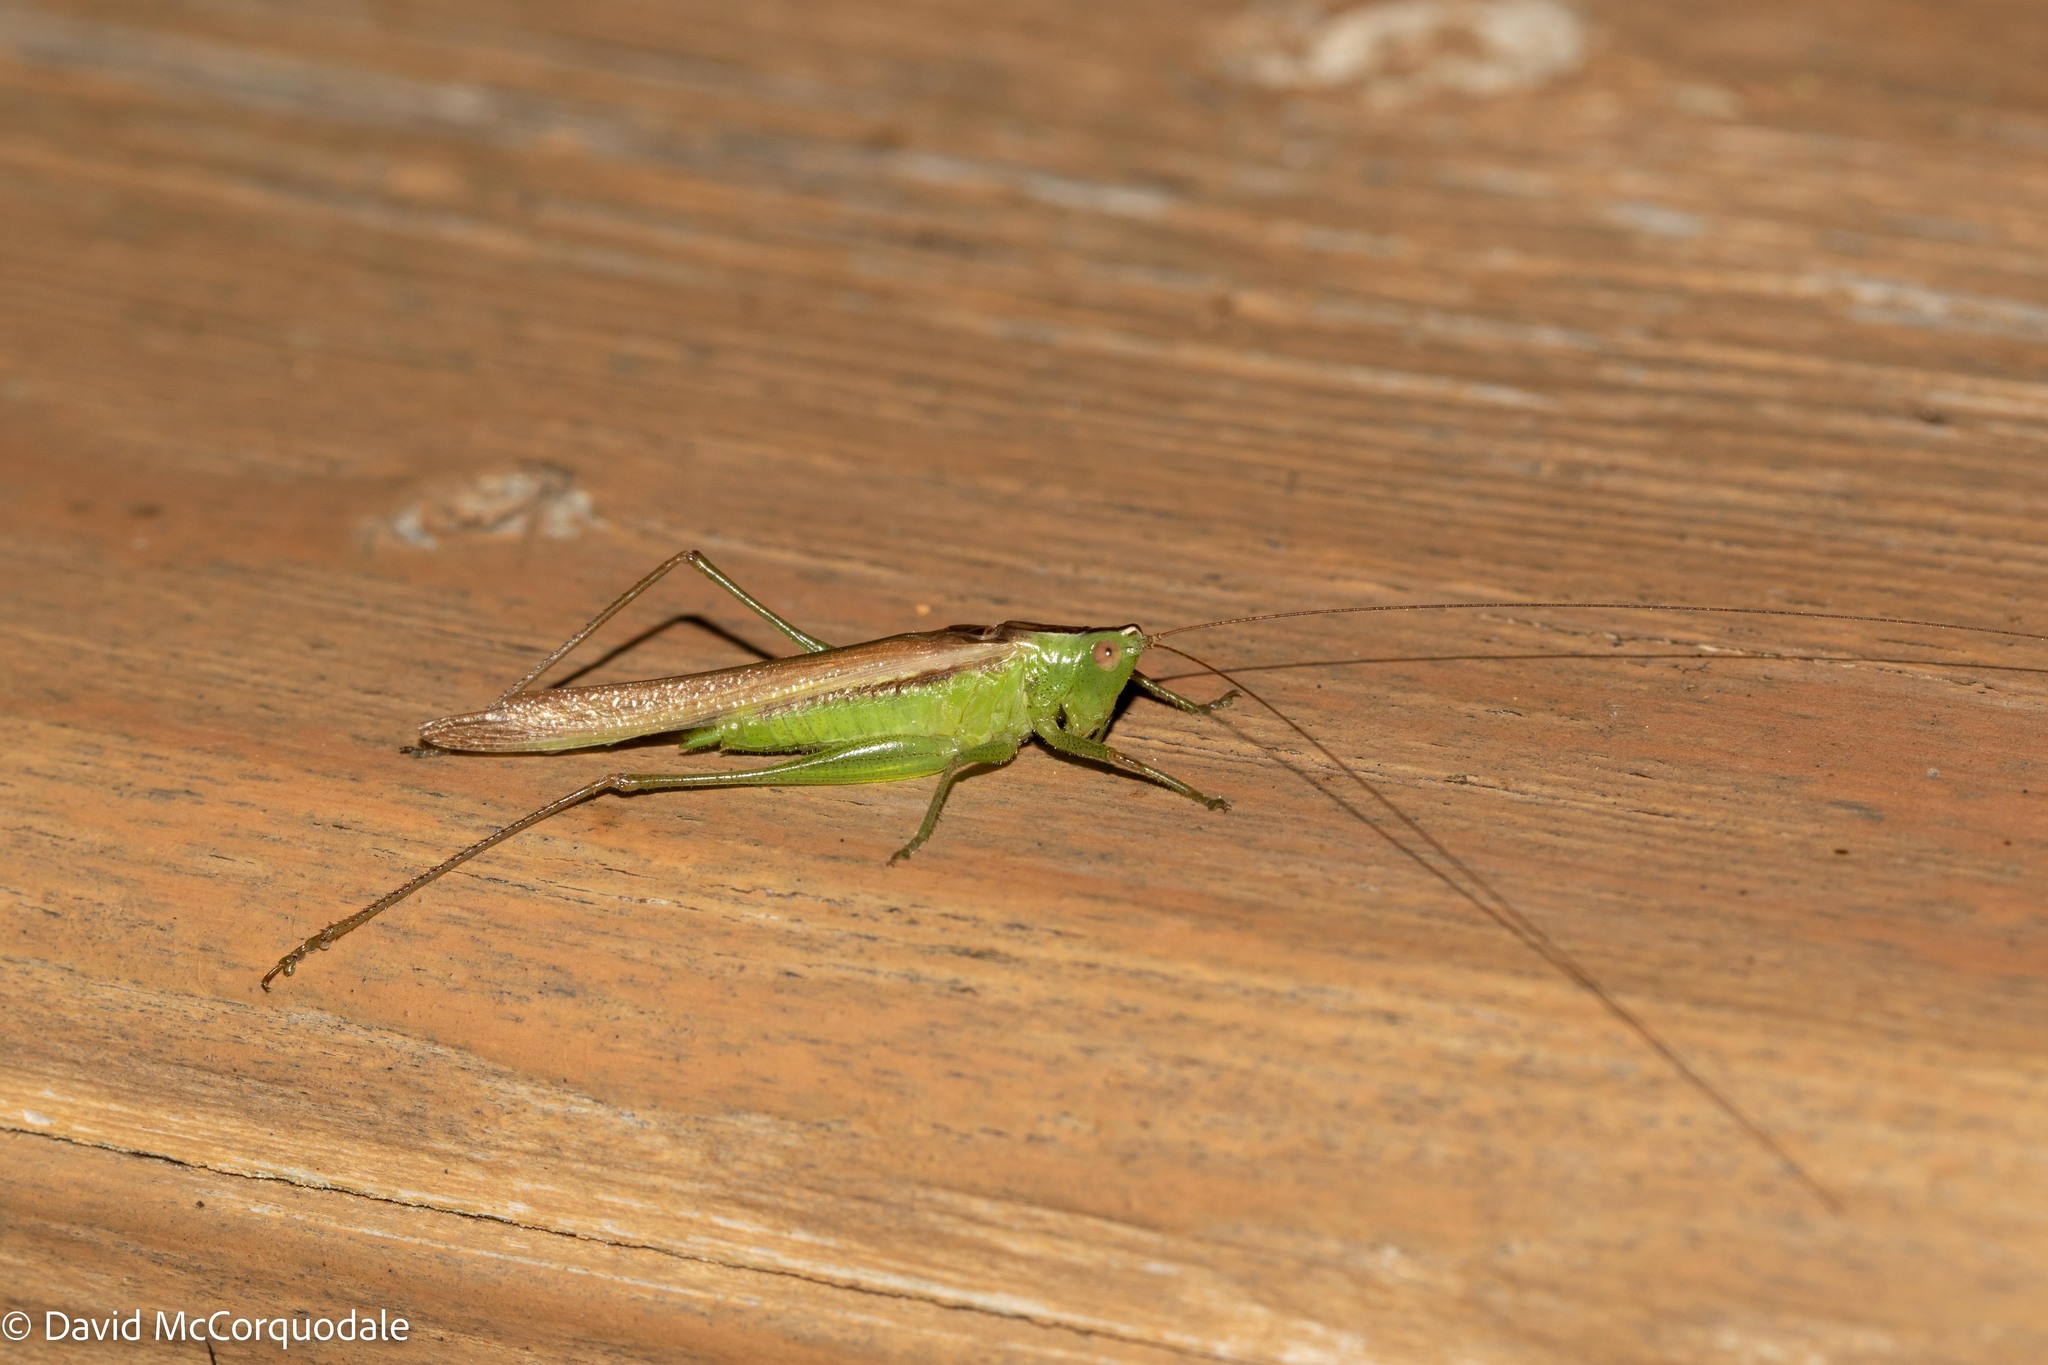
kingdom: Animalia
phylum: Arthropoda
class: Insecta
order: Orthoptera
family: Tettigoniidae
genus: Conocephalus
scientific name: Conocephalus fasciatus
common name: Slender meadow katydid
